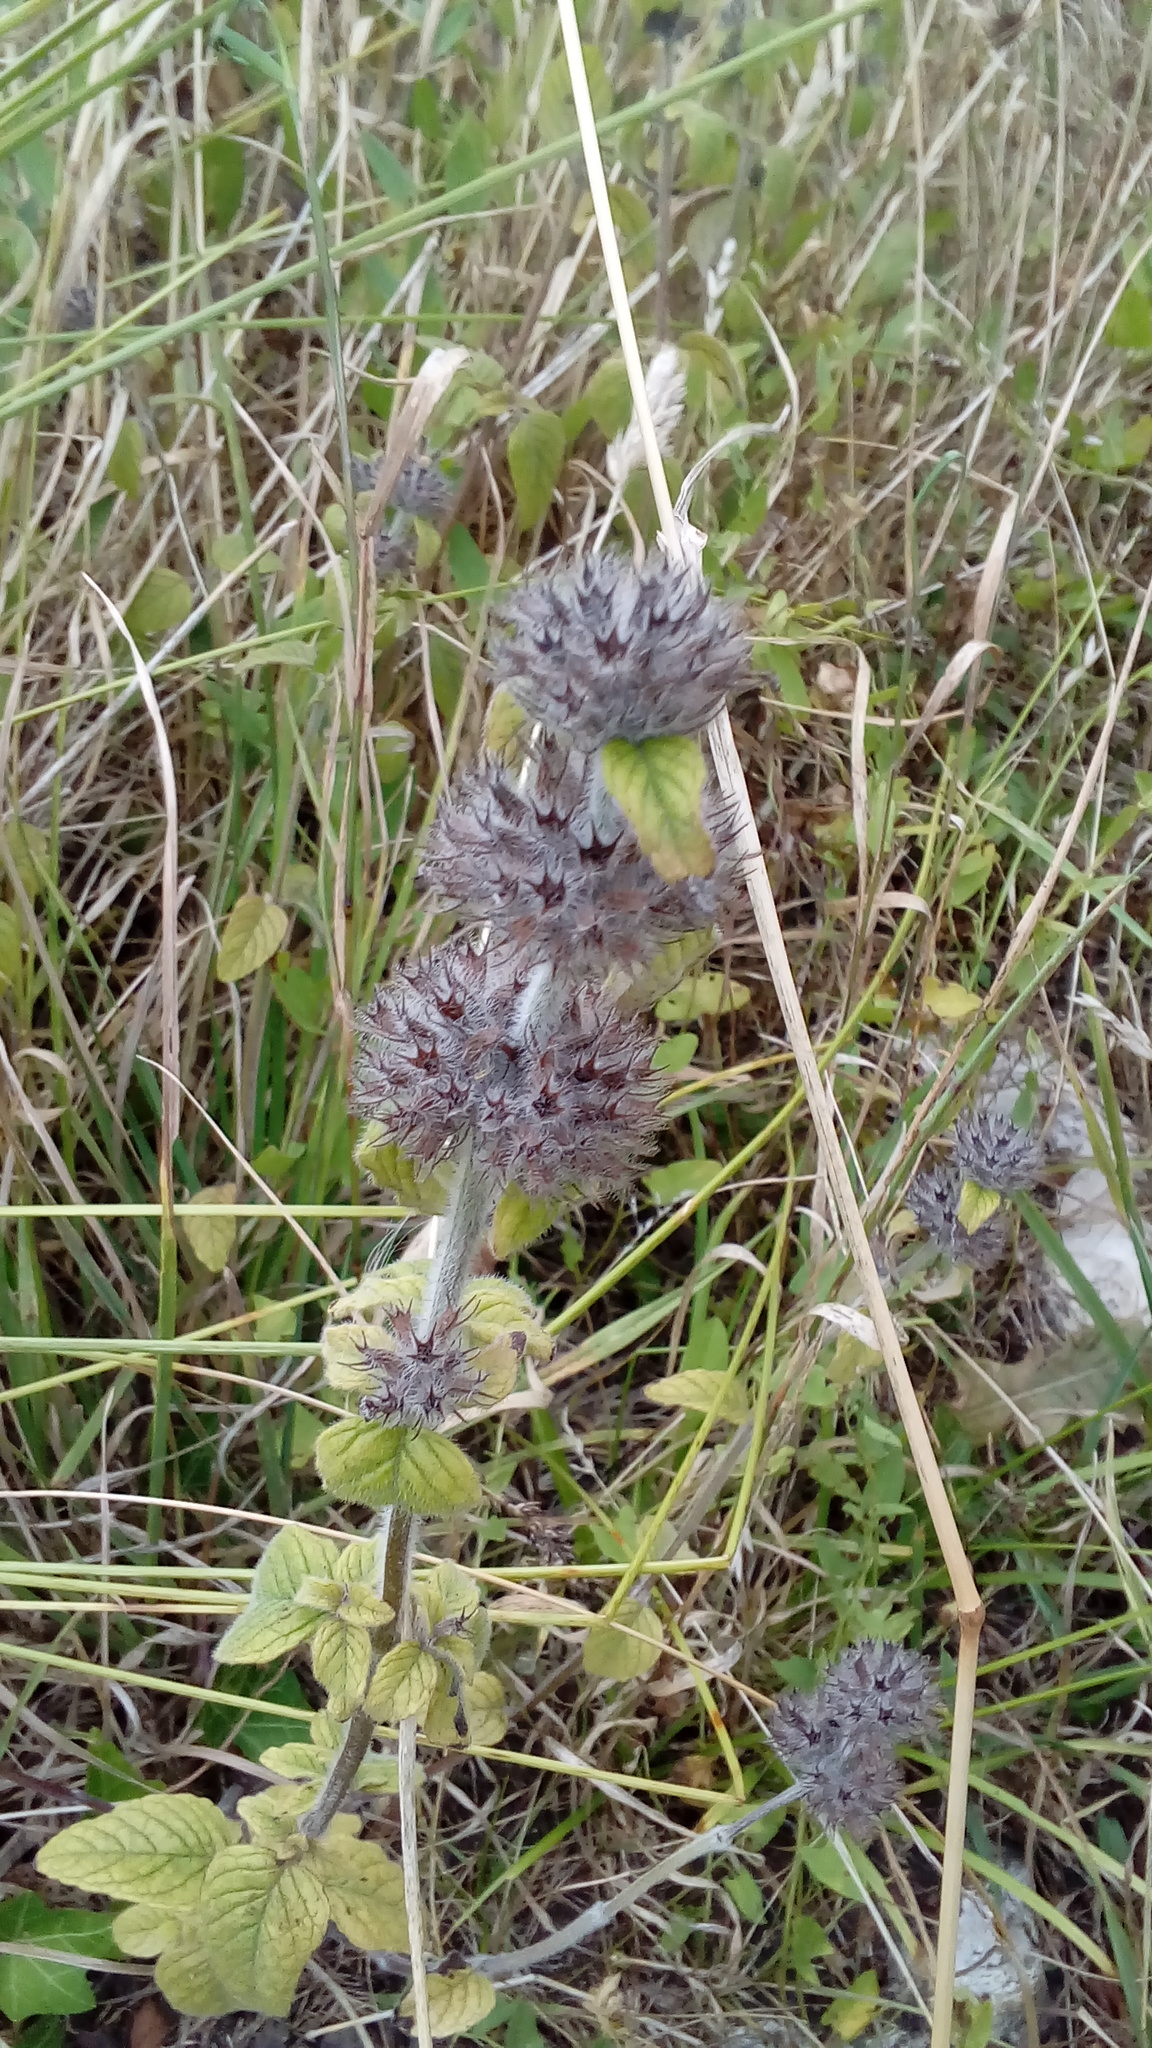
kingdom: Plantae
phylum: Tracheophyta
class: Magnoliopsida
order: Lamiales
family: Lamiaceae
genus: Clinopodium
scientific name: Clinopodium vulgare
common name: Wild basil
